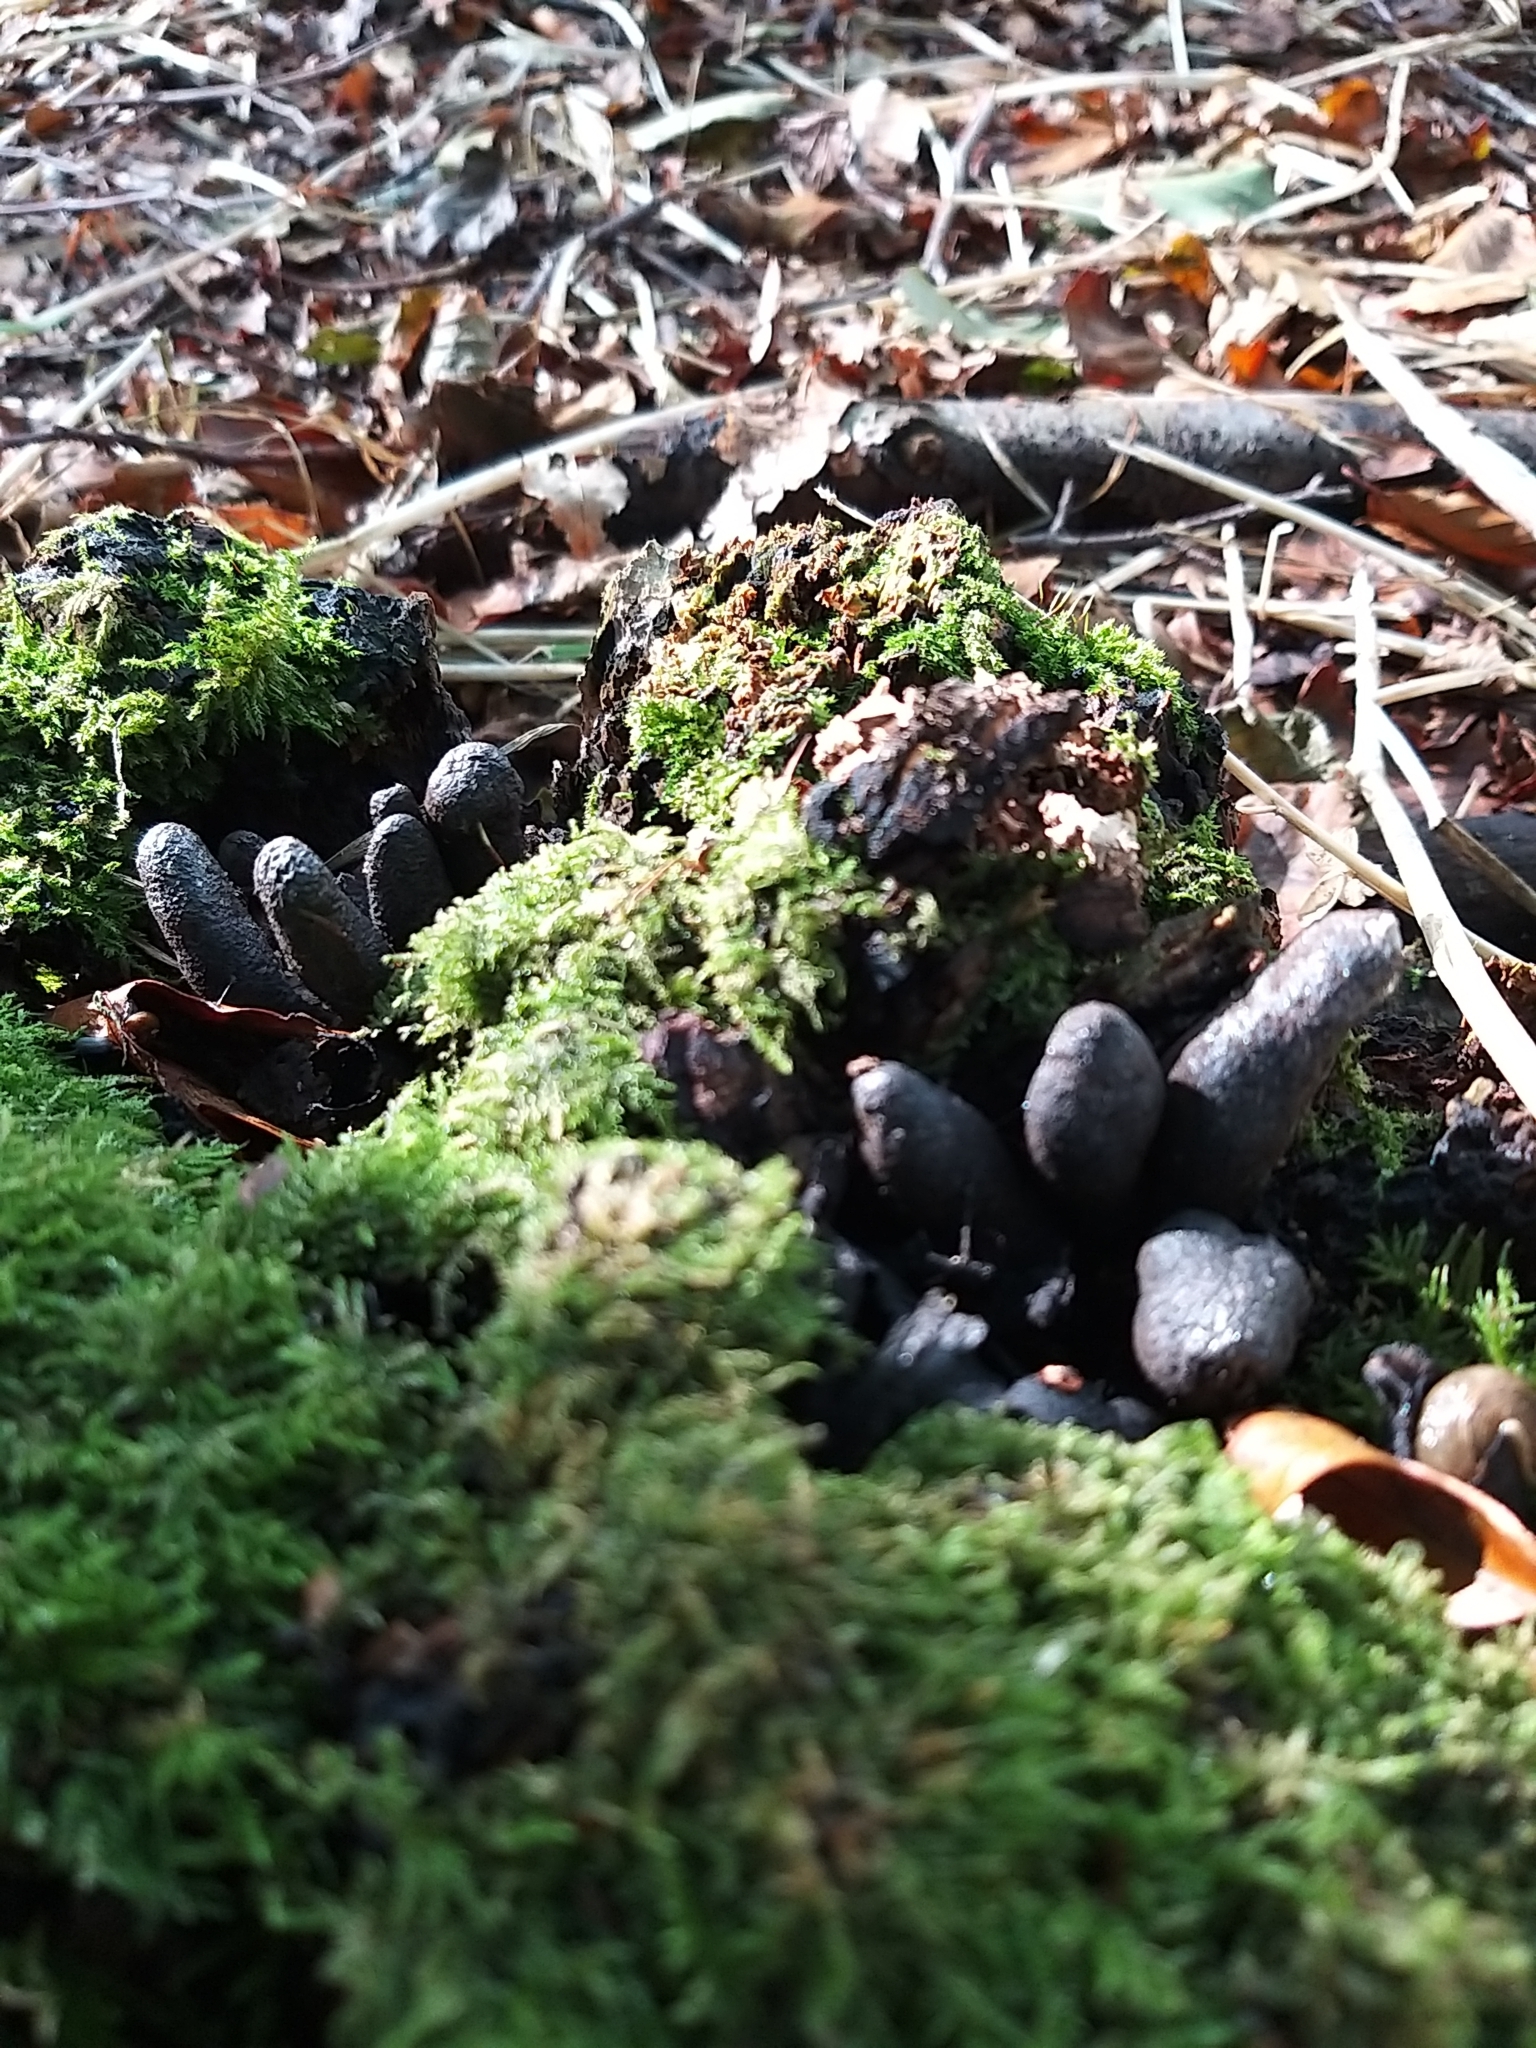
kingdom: Fungi
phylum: Ascomycota
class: Sordariomycetes
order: Xylariales
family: Xylariaceae
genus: Xylaria
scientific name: Xylaria polymorpha
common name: Dead man's fingers
